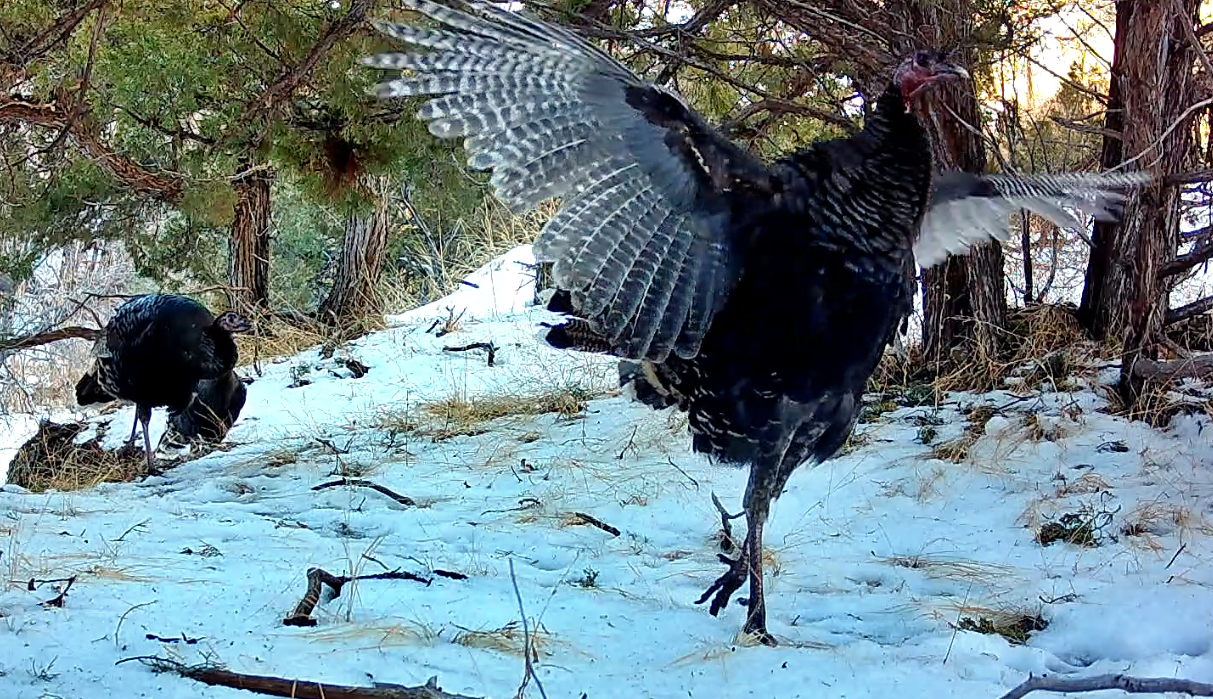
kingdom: Animalia
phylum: Chordata
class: Aves
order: Galliformes
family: Phasianidae
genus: Meleagris
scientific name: Meleagris gallopavo
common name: Wild turkey
